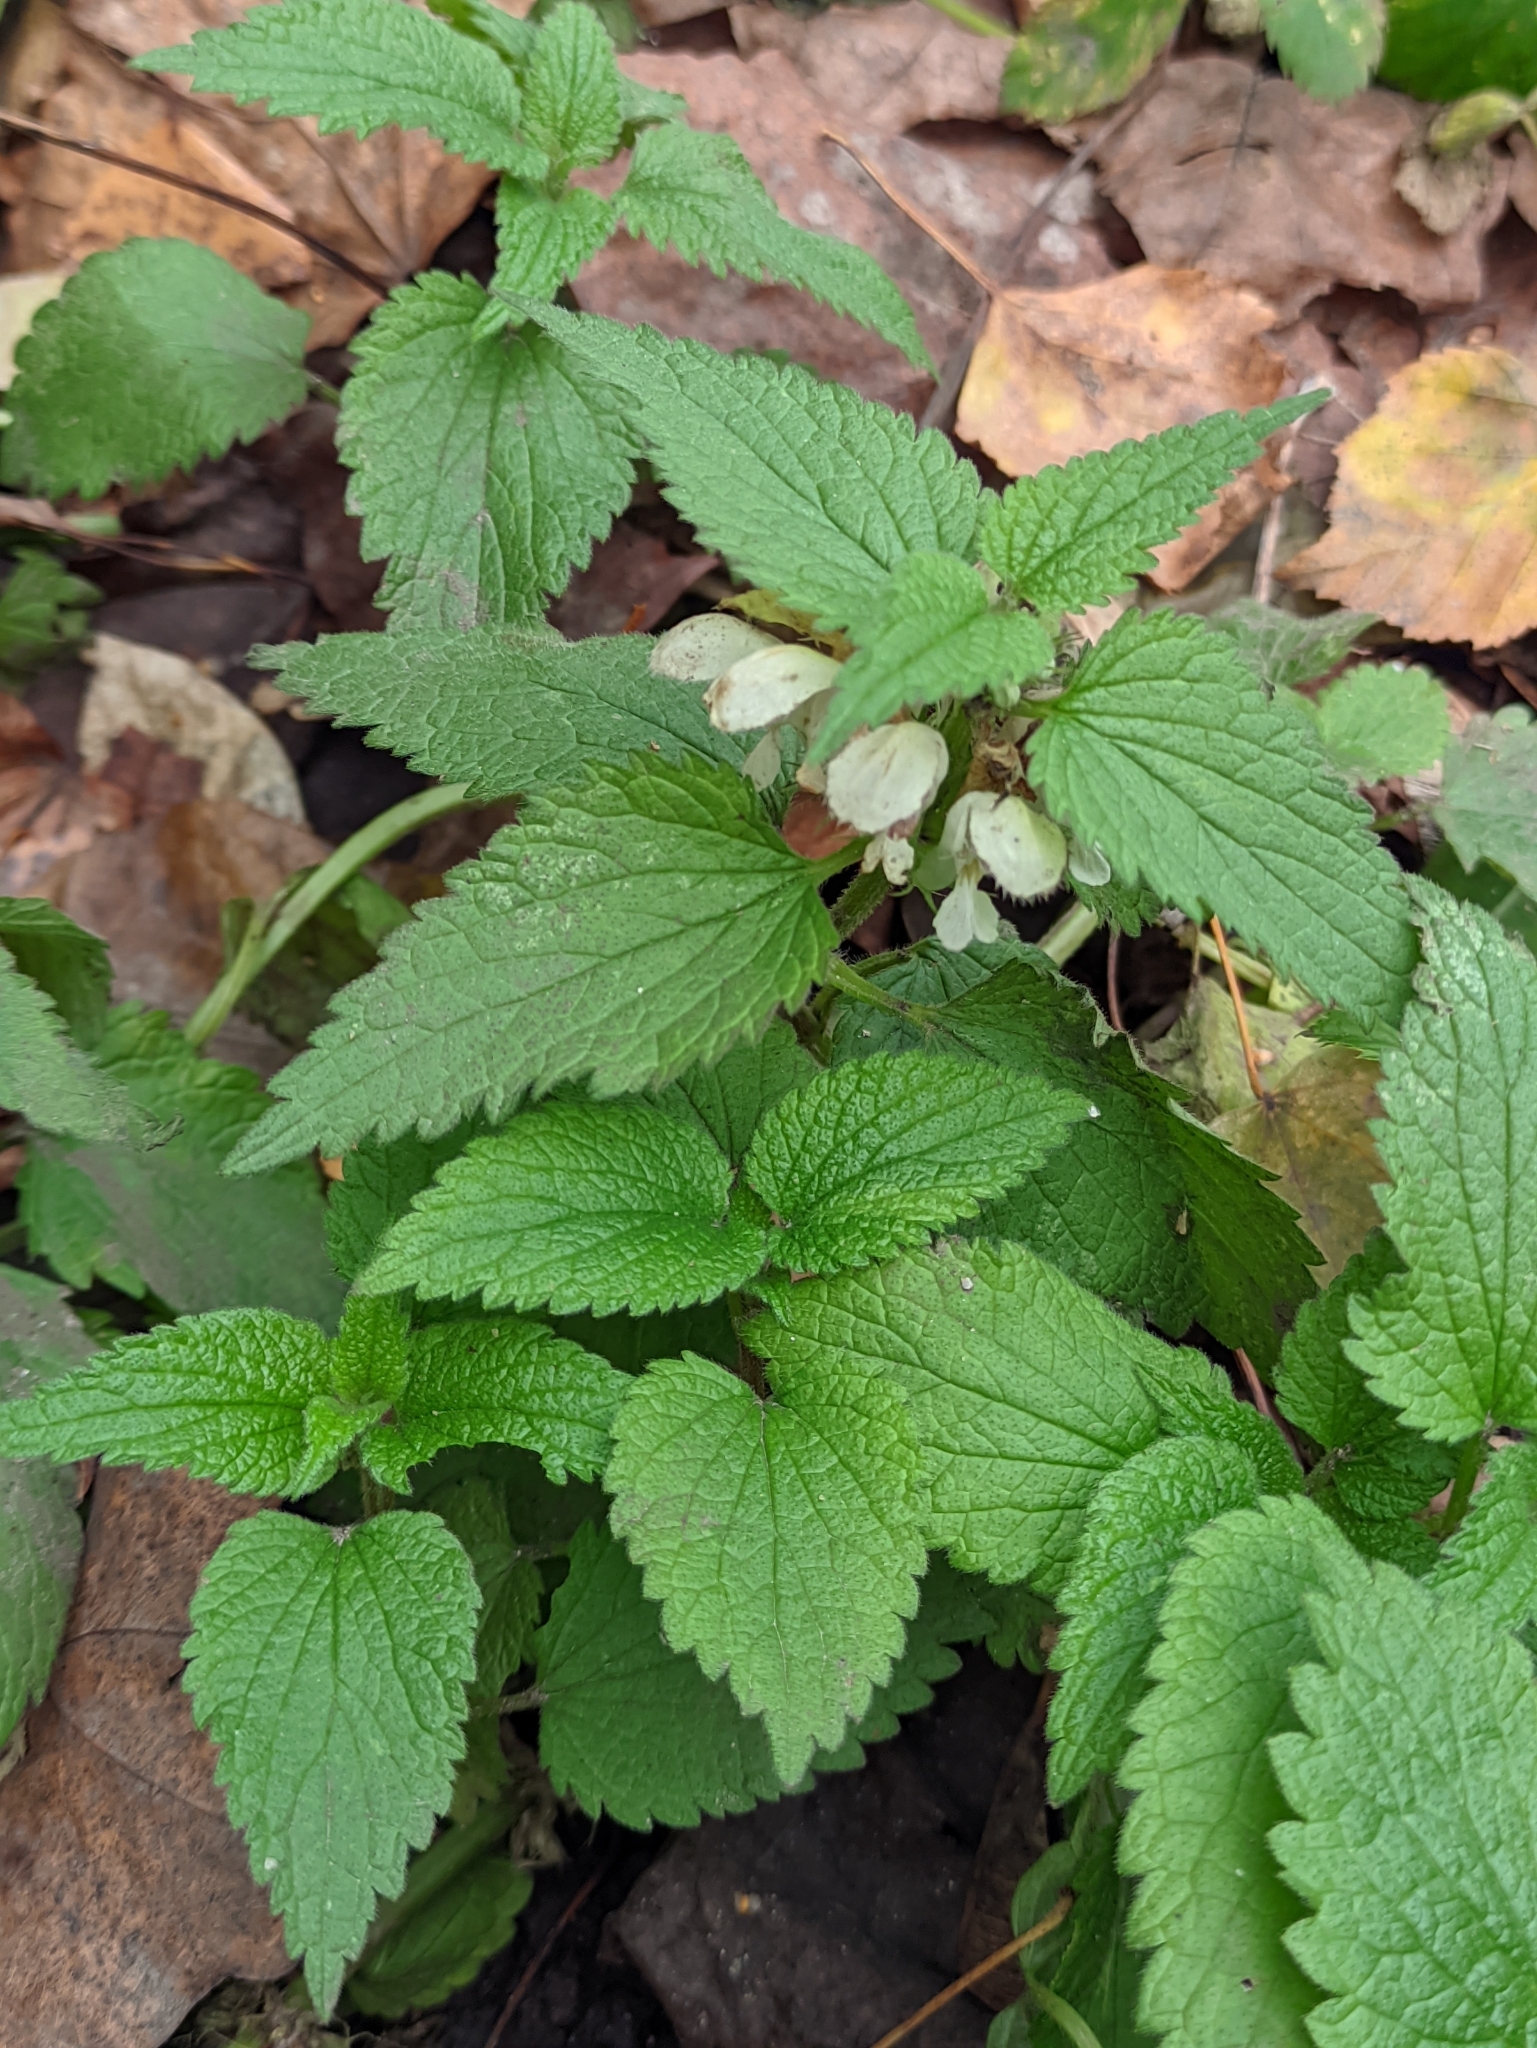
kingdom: Plantae
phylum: Tracheophyta
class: Magnoliopsida
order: Lamiales
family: Lamiaceae
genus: Lamium
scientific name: Lamium album
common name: White dead-nettle
